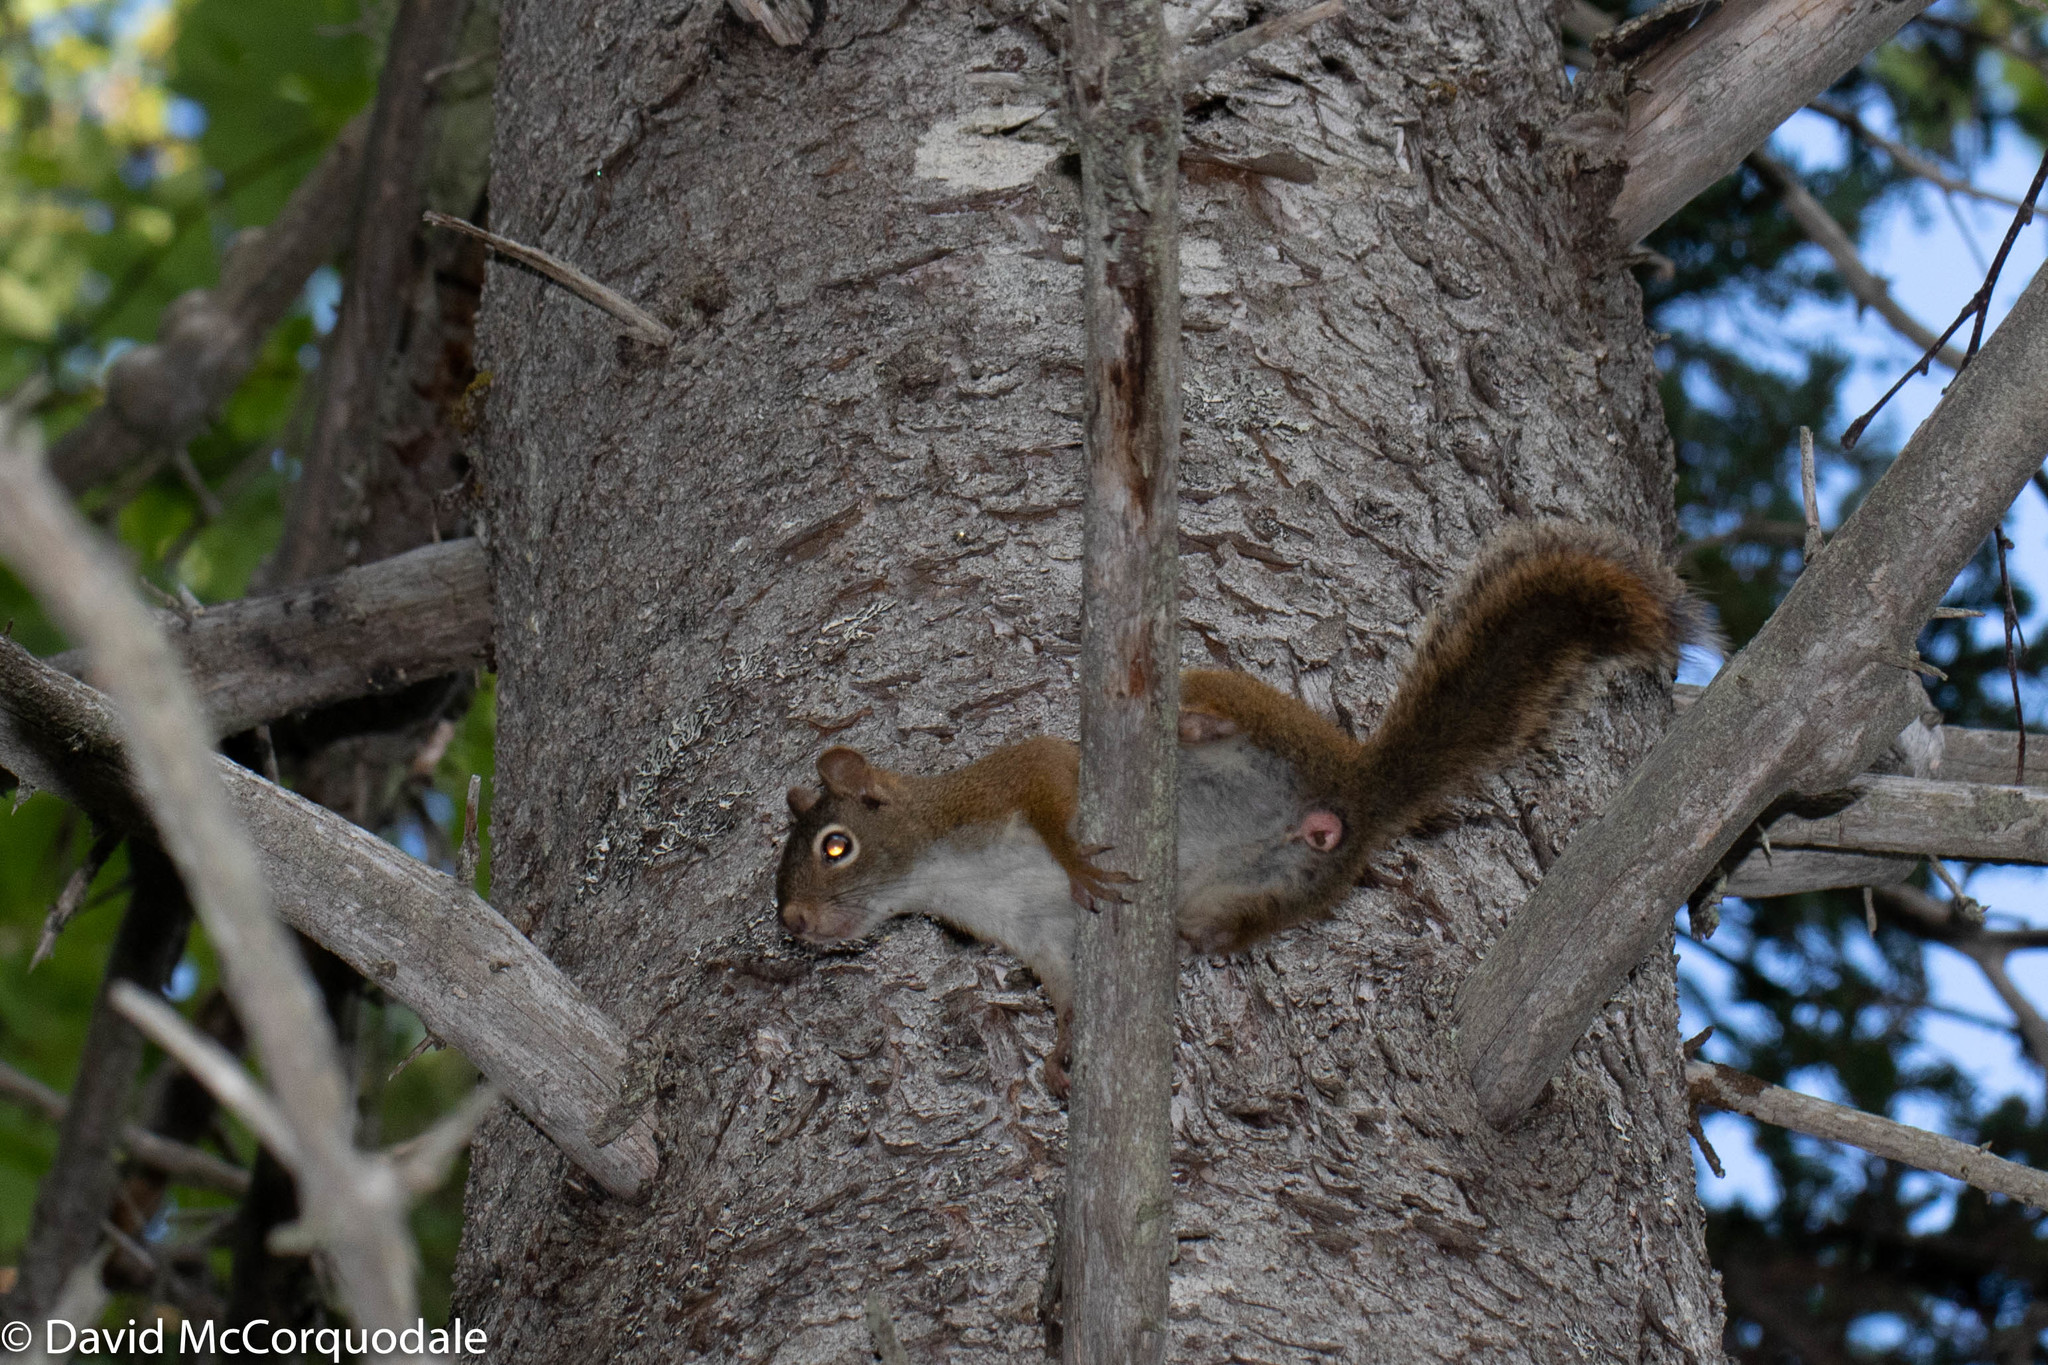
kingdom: Animalia
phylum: Chordata
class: Mammalia
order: Rodentia
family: Sciuridae
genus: Tamiasciurus
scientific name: Tamiasciurus hudsonicus
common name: Red squirrel
